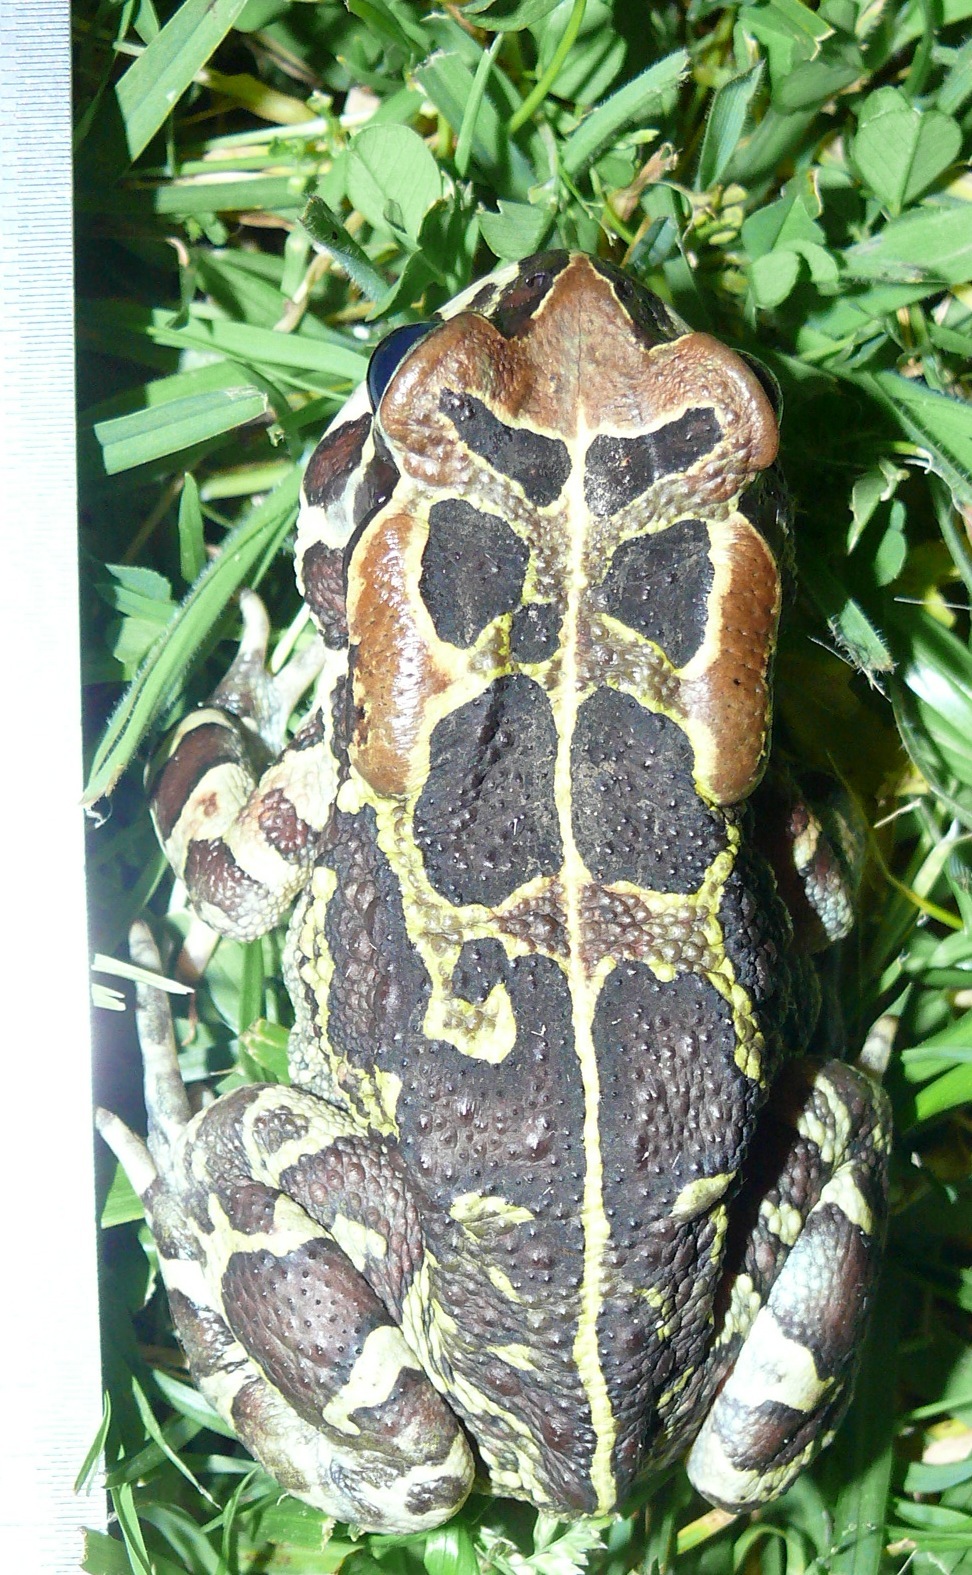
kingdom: Animalia
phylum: Chordata
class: Amphibia
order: Anura
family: Bufonidae
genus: Sclerophrys
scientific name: Sclerophrys pantherina
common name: Panther toad
